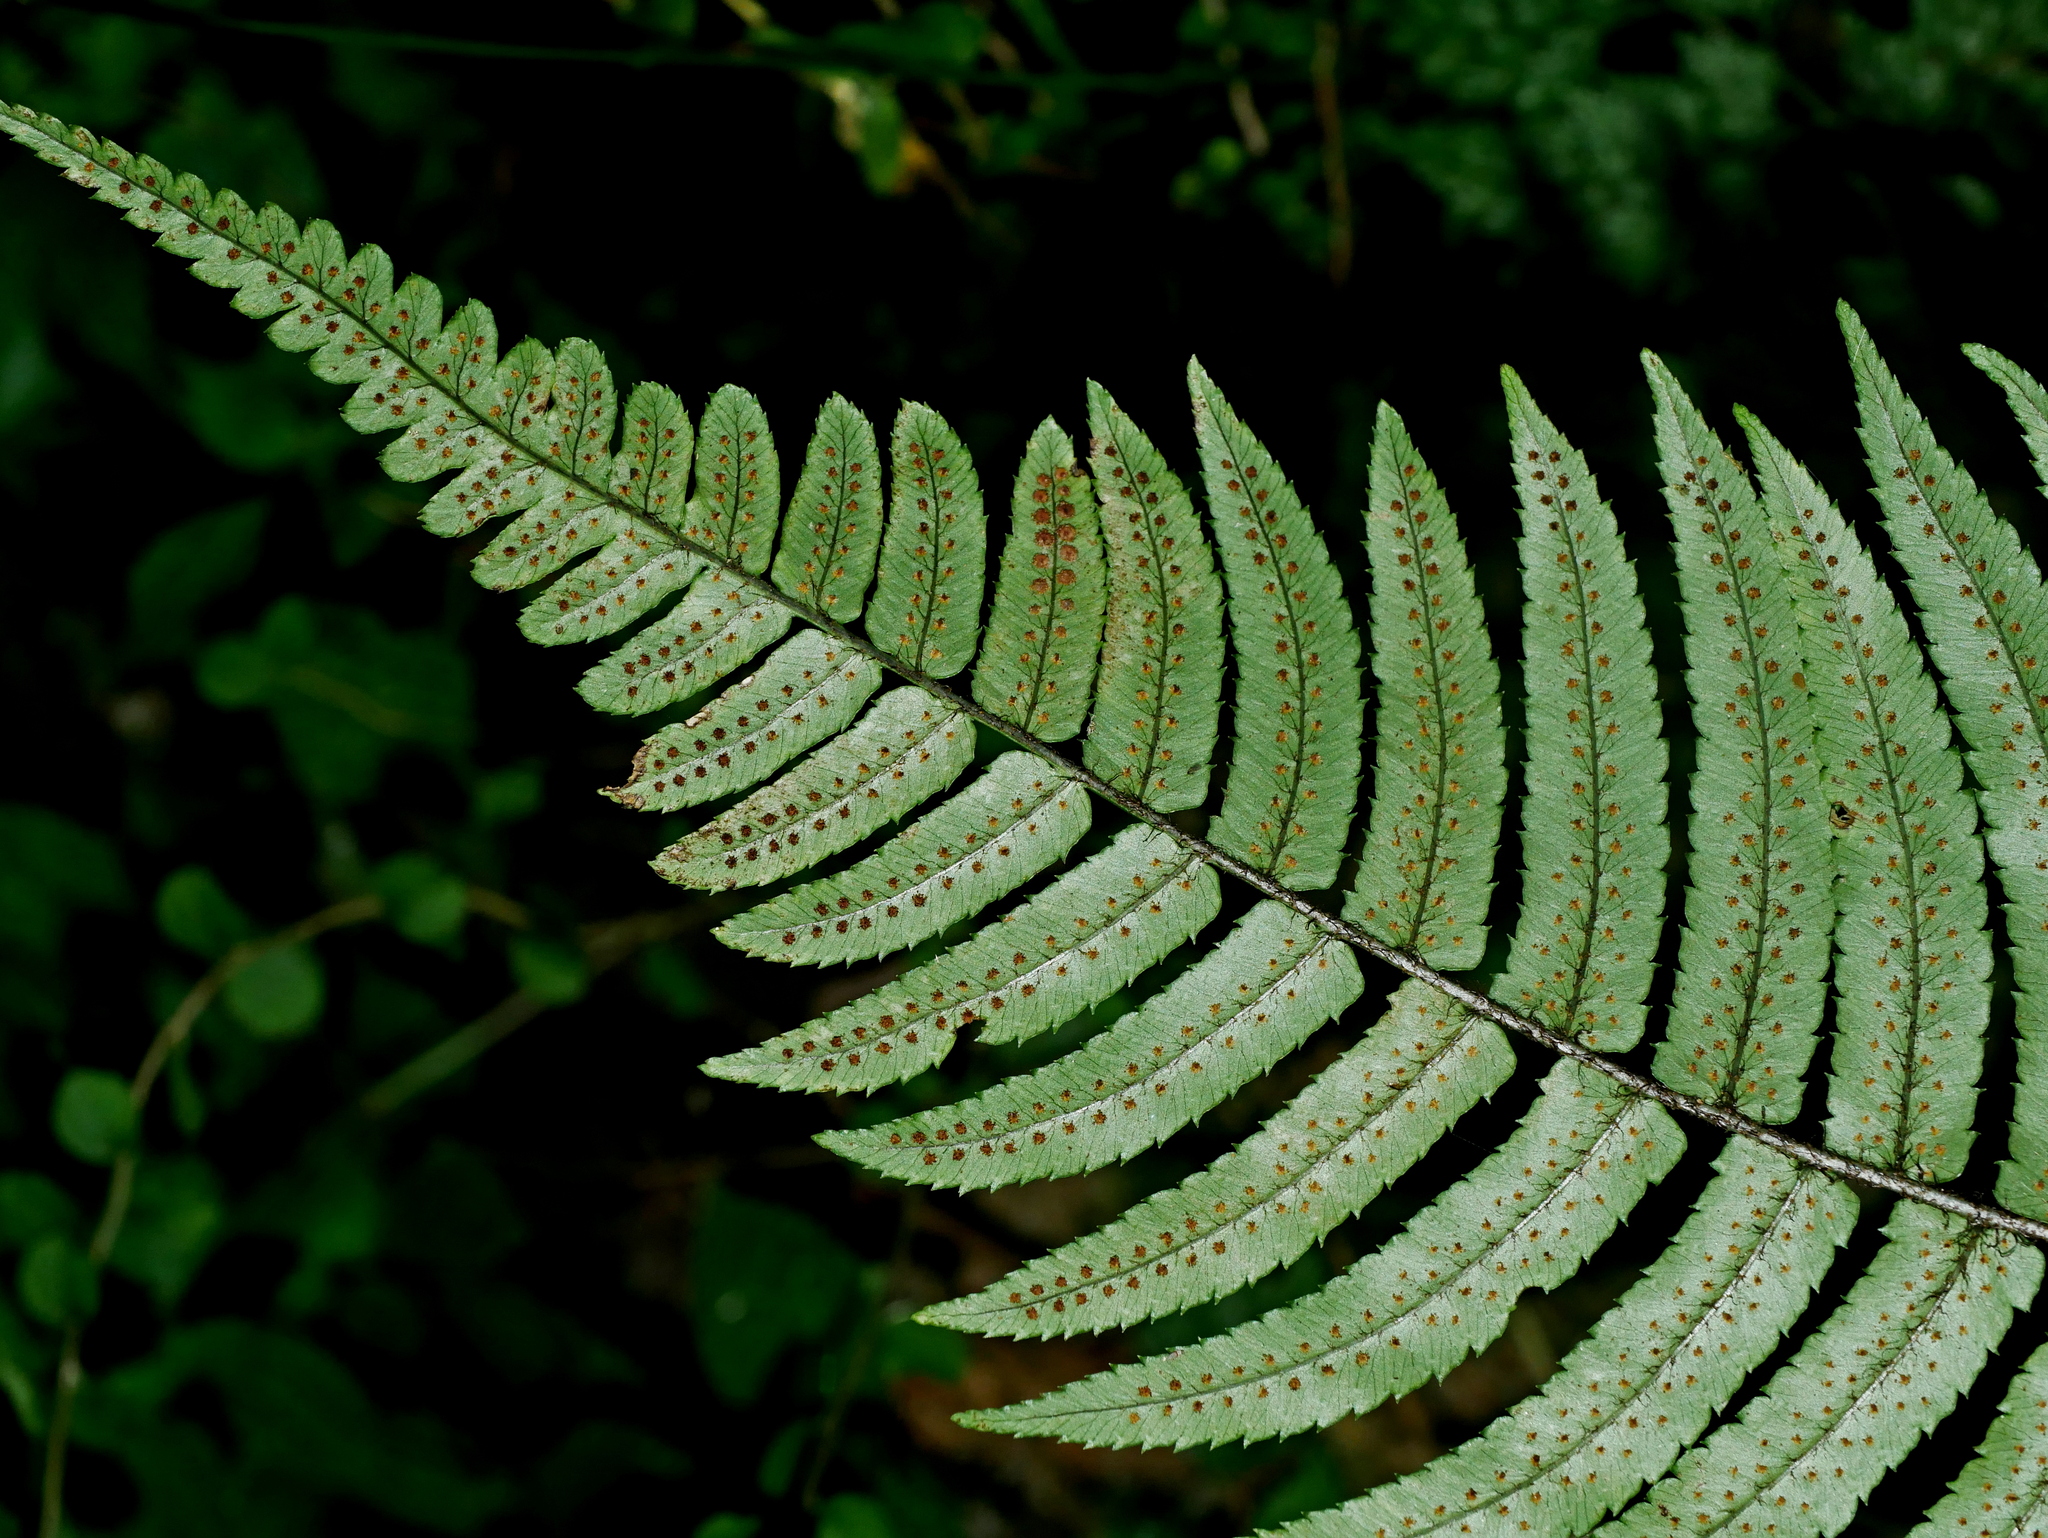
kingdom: Plantae
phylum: Tracheophyta
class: Polypodiopsida
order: Polypodiales
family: Dryopteridaceae
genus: Dryopteris
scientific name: Dryopteris cycadina
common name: Shaggy wood fern
